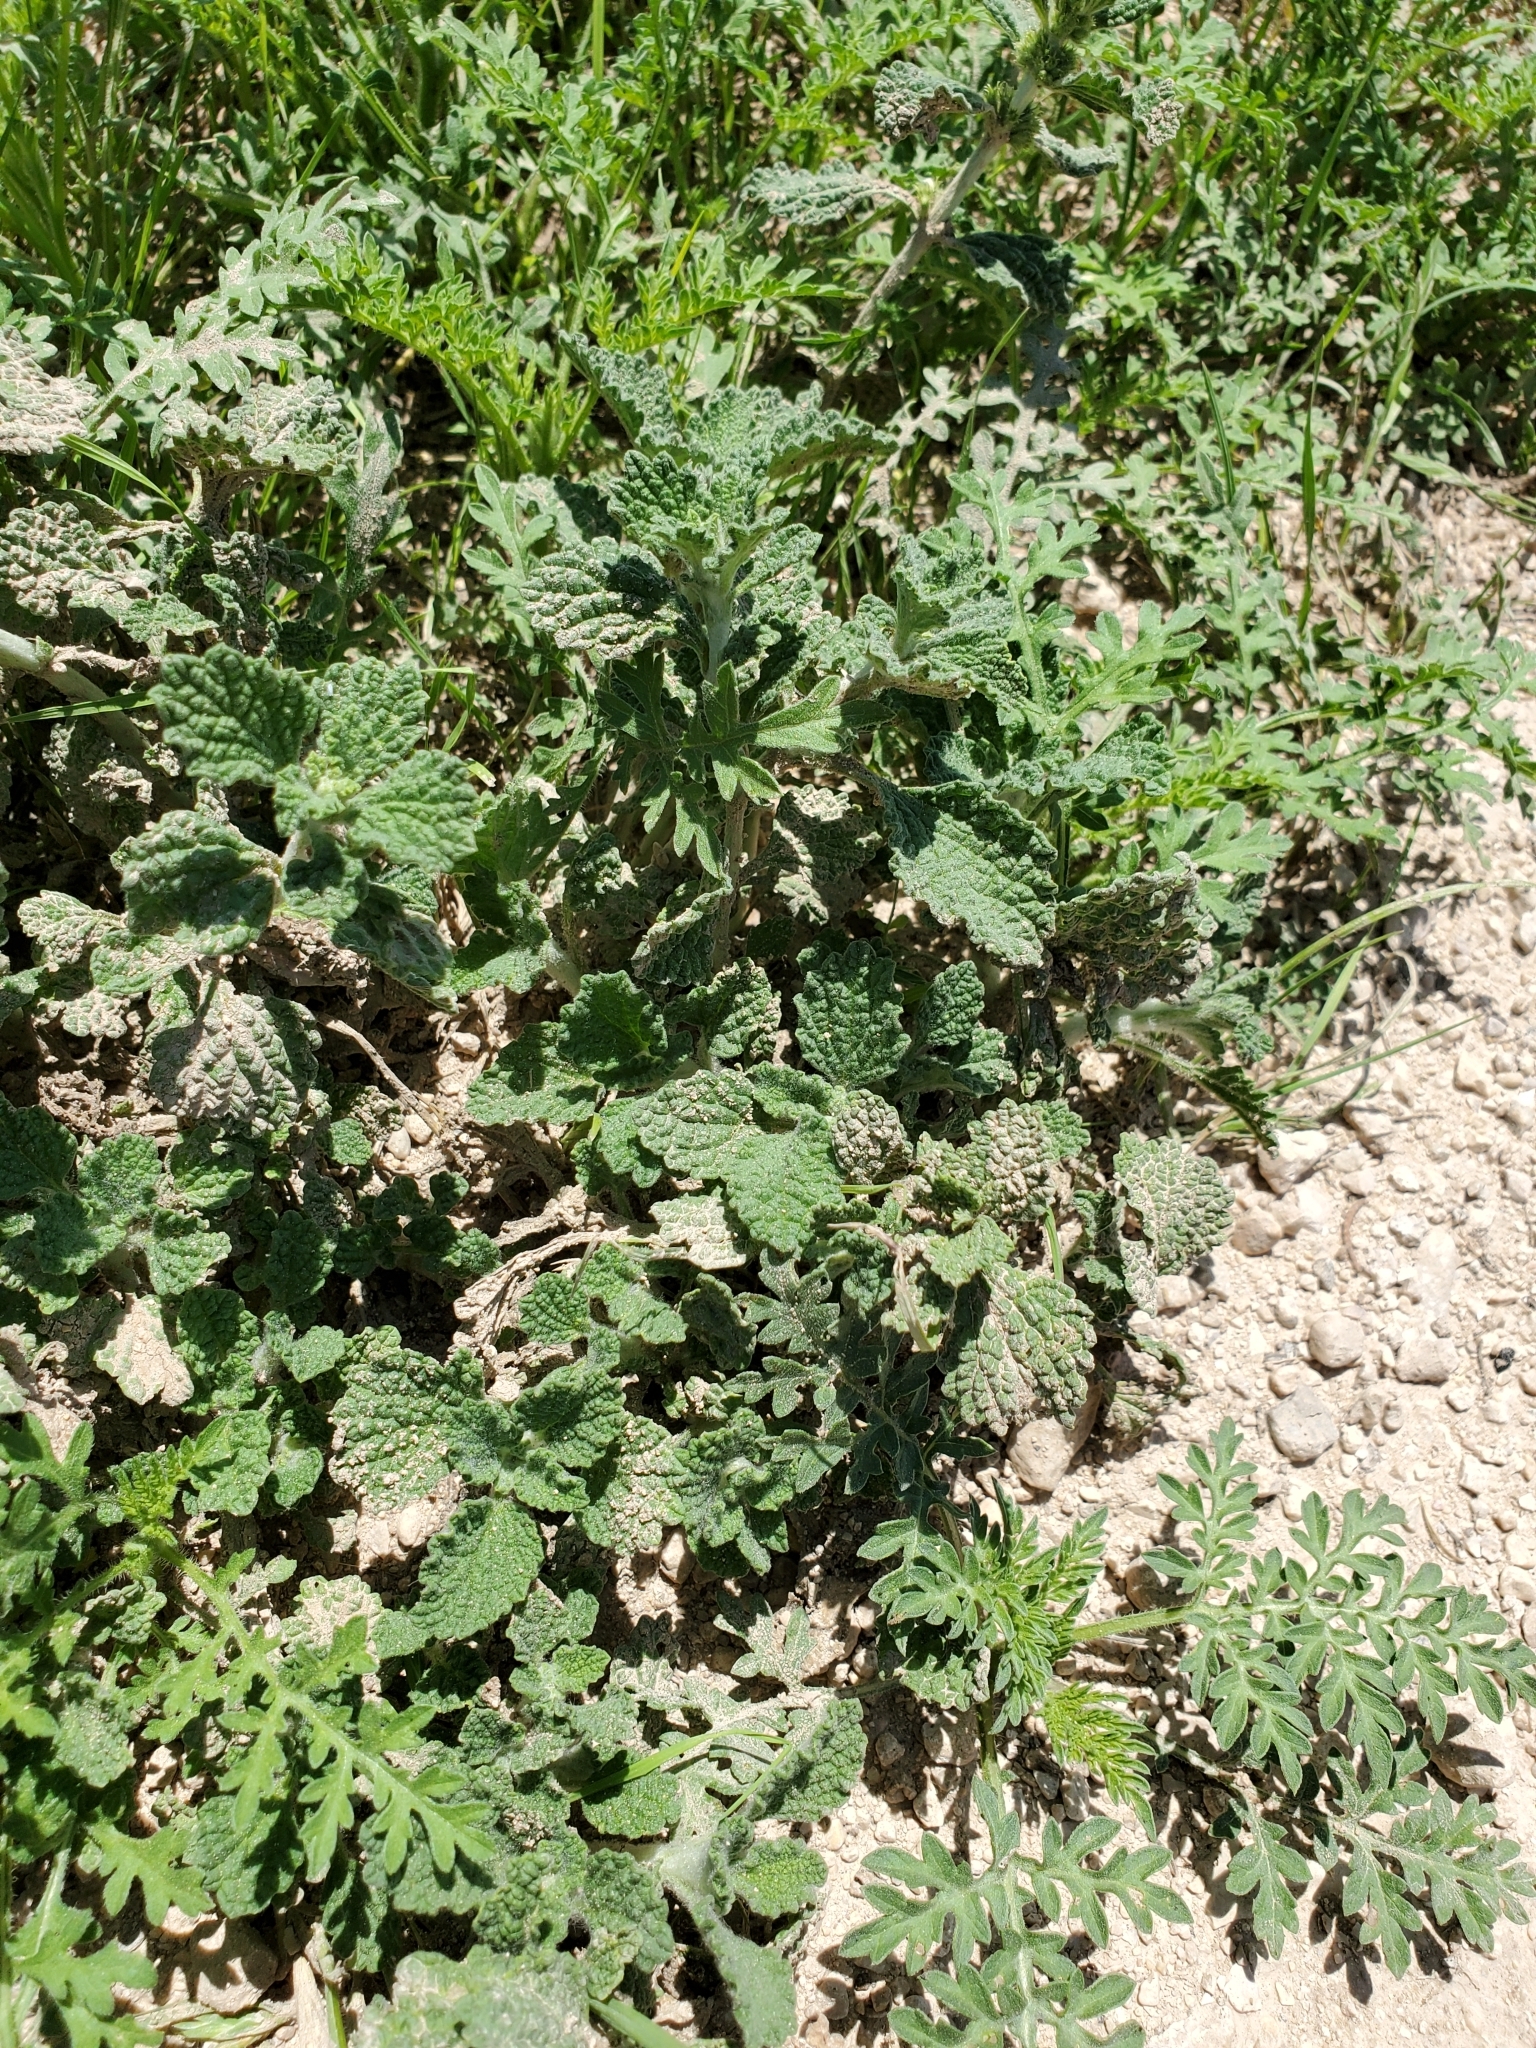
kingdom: Plantae
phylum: Tracheophyta
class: Magnoliopsida
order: Lamiales
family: Lamiaceae
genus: Marrubium
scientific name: Marrubium vulgare
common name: Horehound
